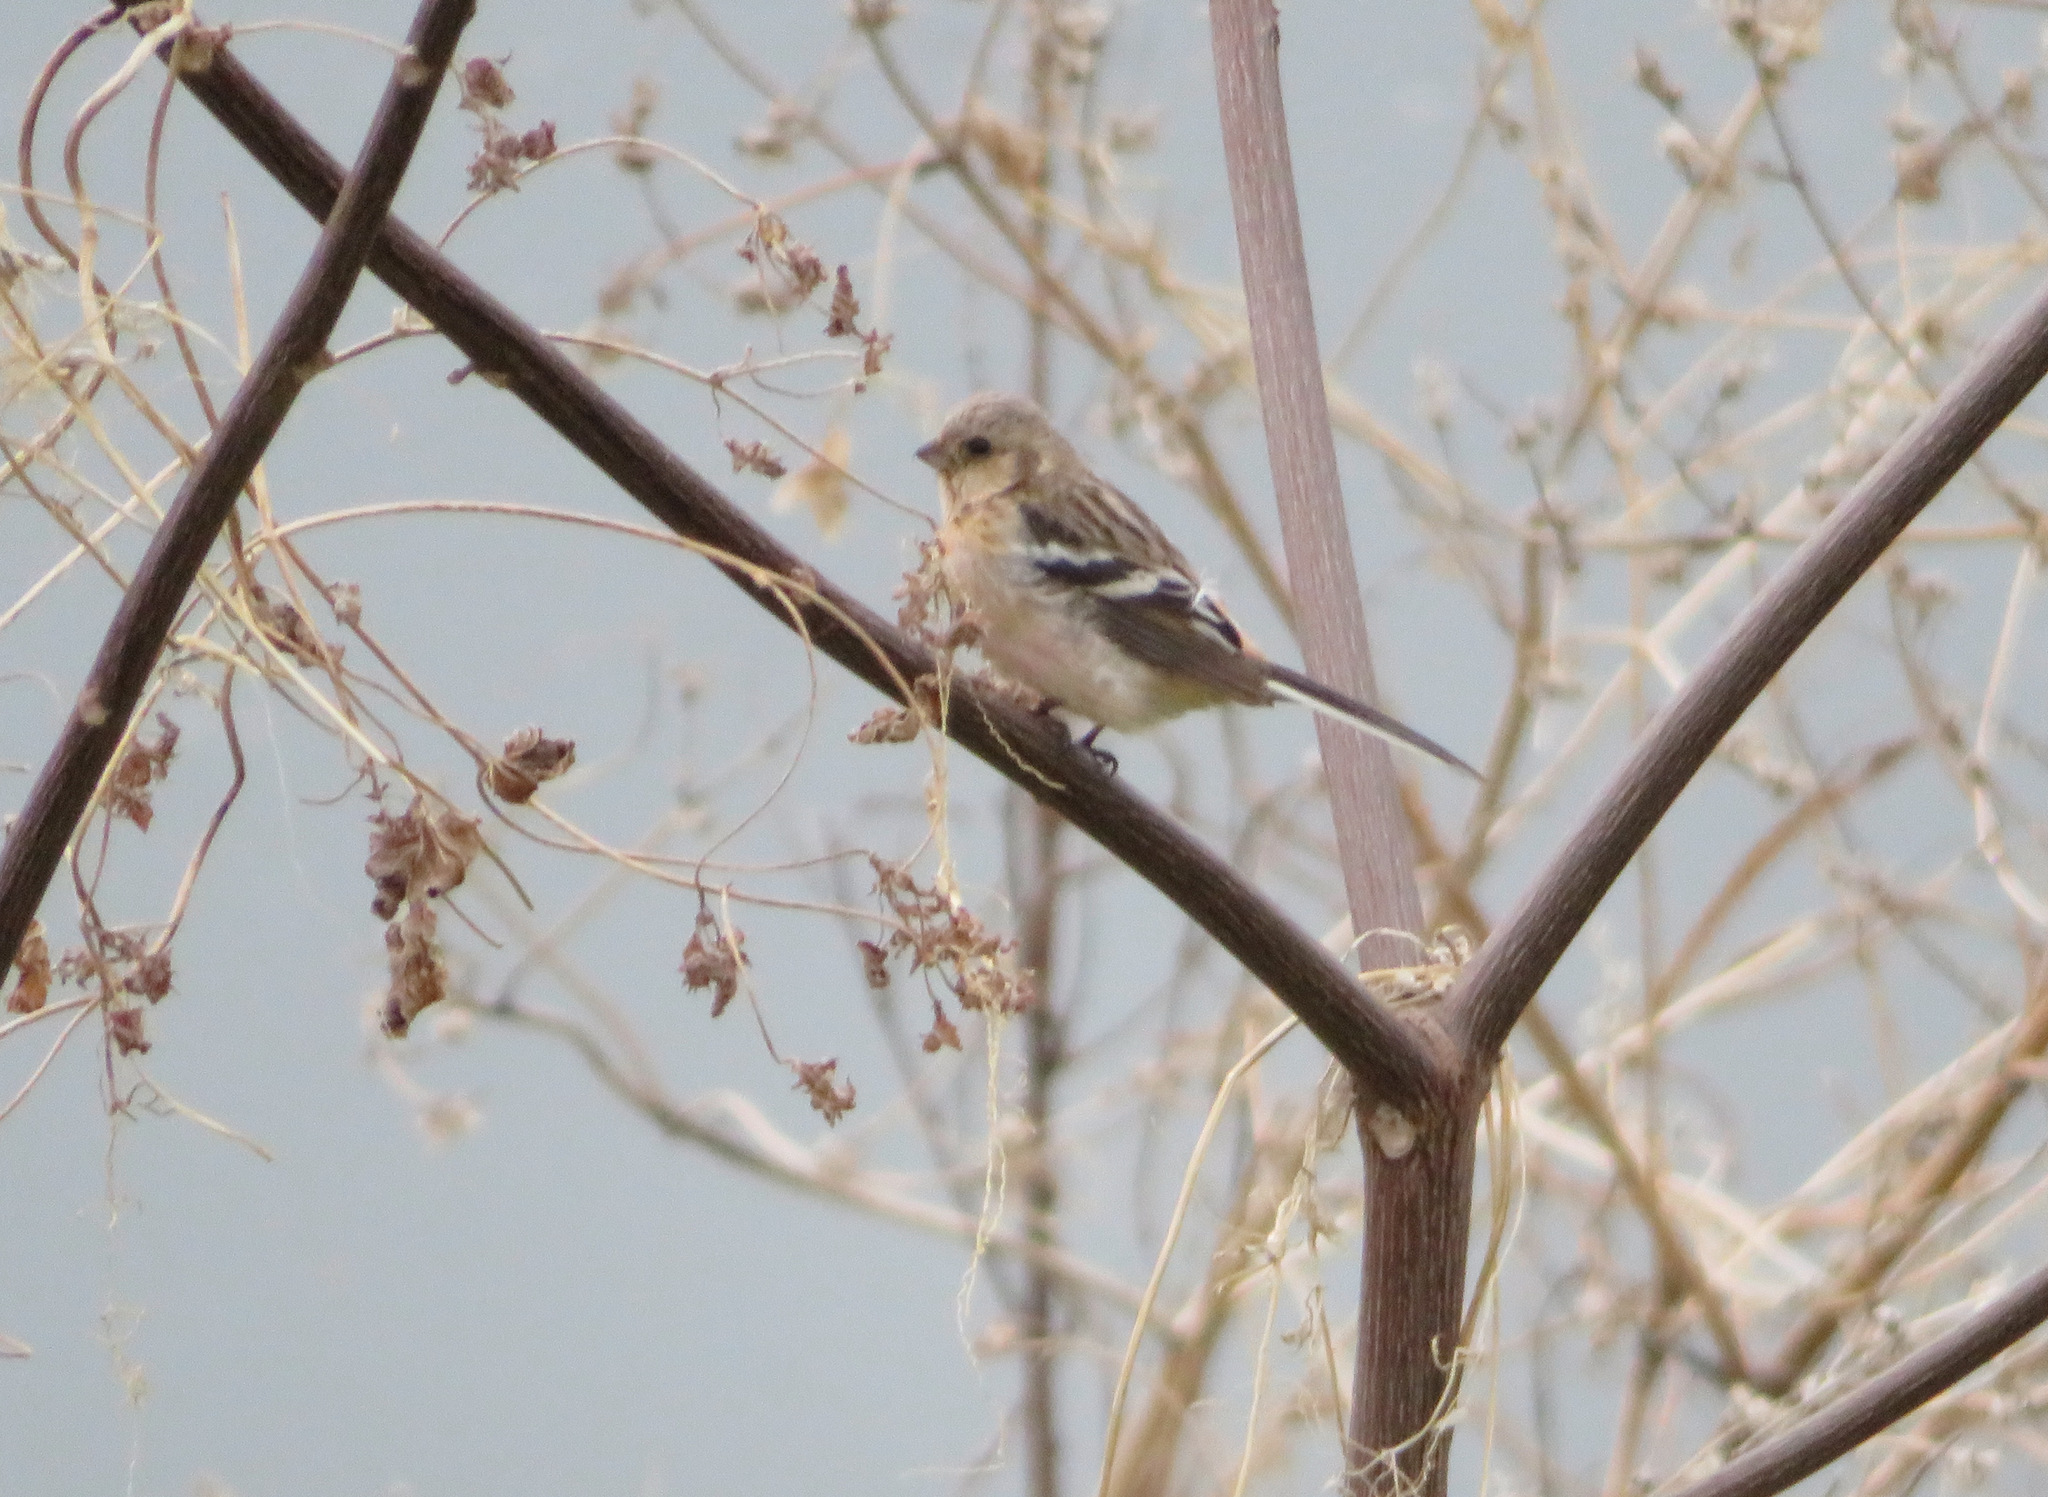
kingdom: Animalia
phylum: Chordata
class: Aves
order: Passeriformes
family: Fringillidae
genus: Carpodacus
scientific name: Carpodacus sibiricus
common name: Long-tailed rosefinch
